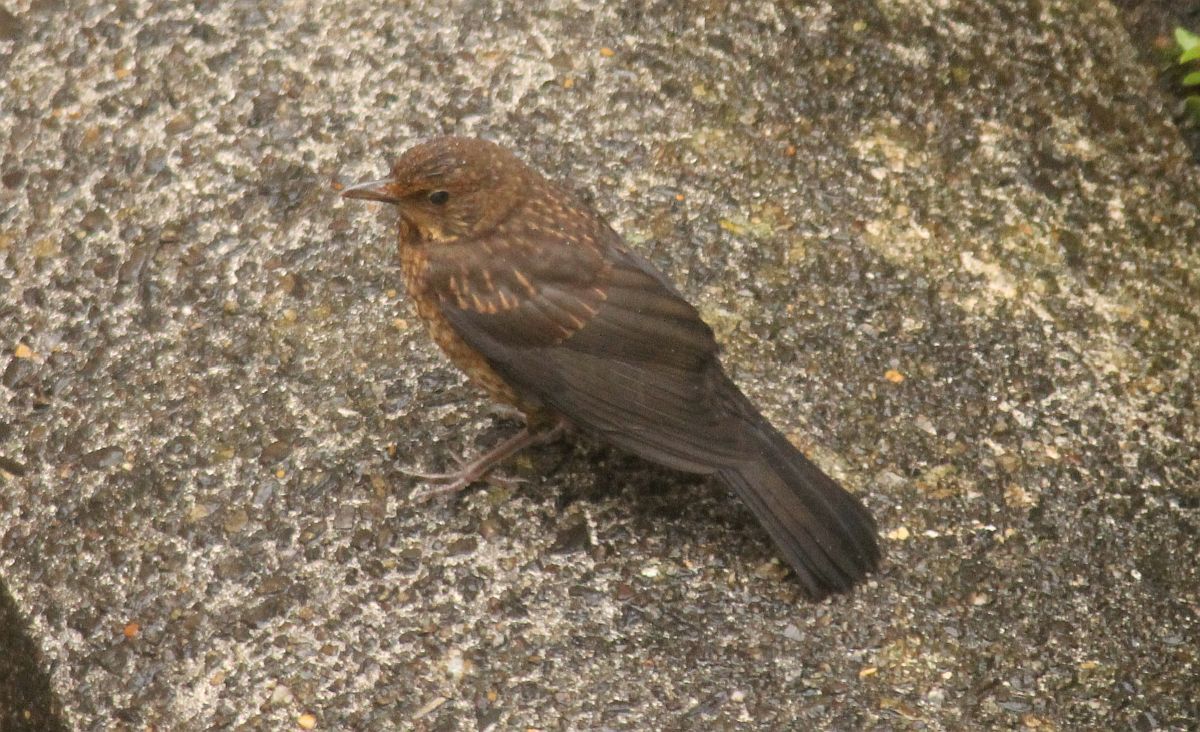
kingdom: Animalia
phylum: Chordata
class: Aves
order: Passeriformes
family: Turdidae
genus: Turdus
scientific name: Turdus merula
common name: Common blackbird
